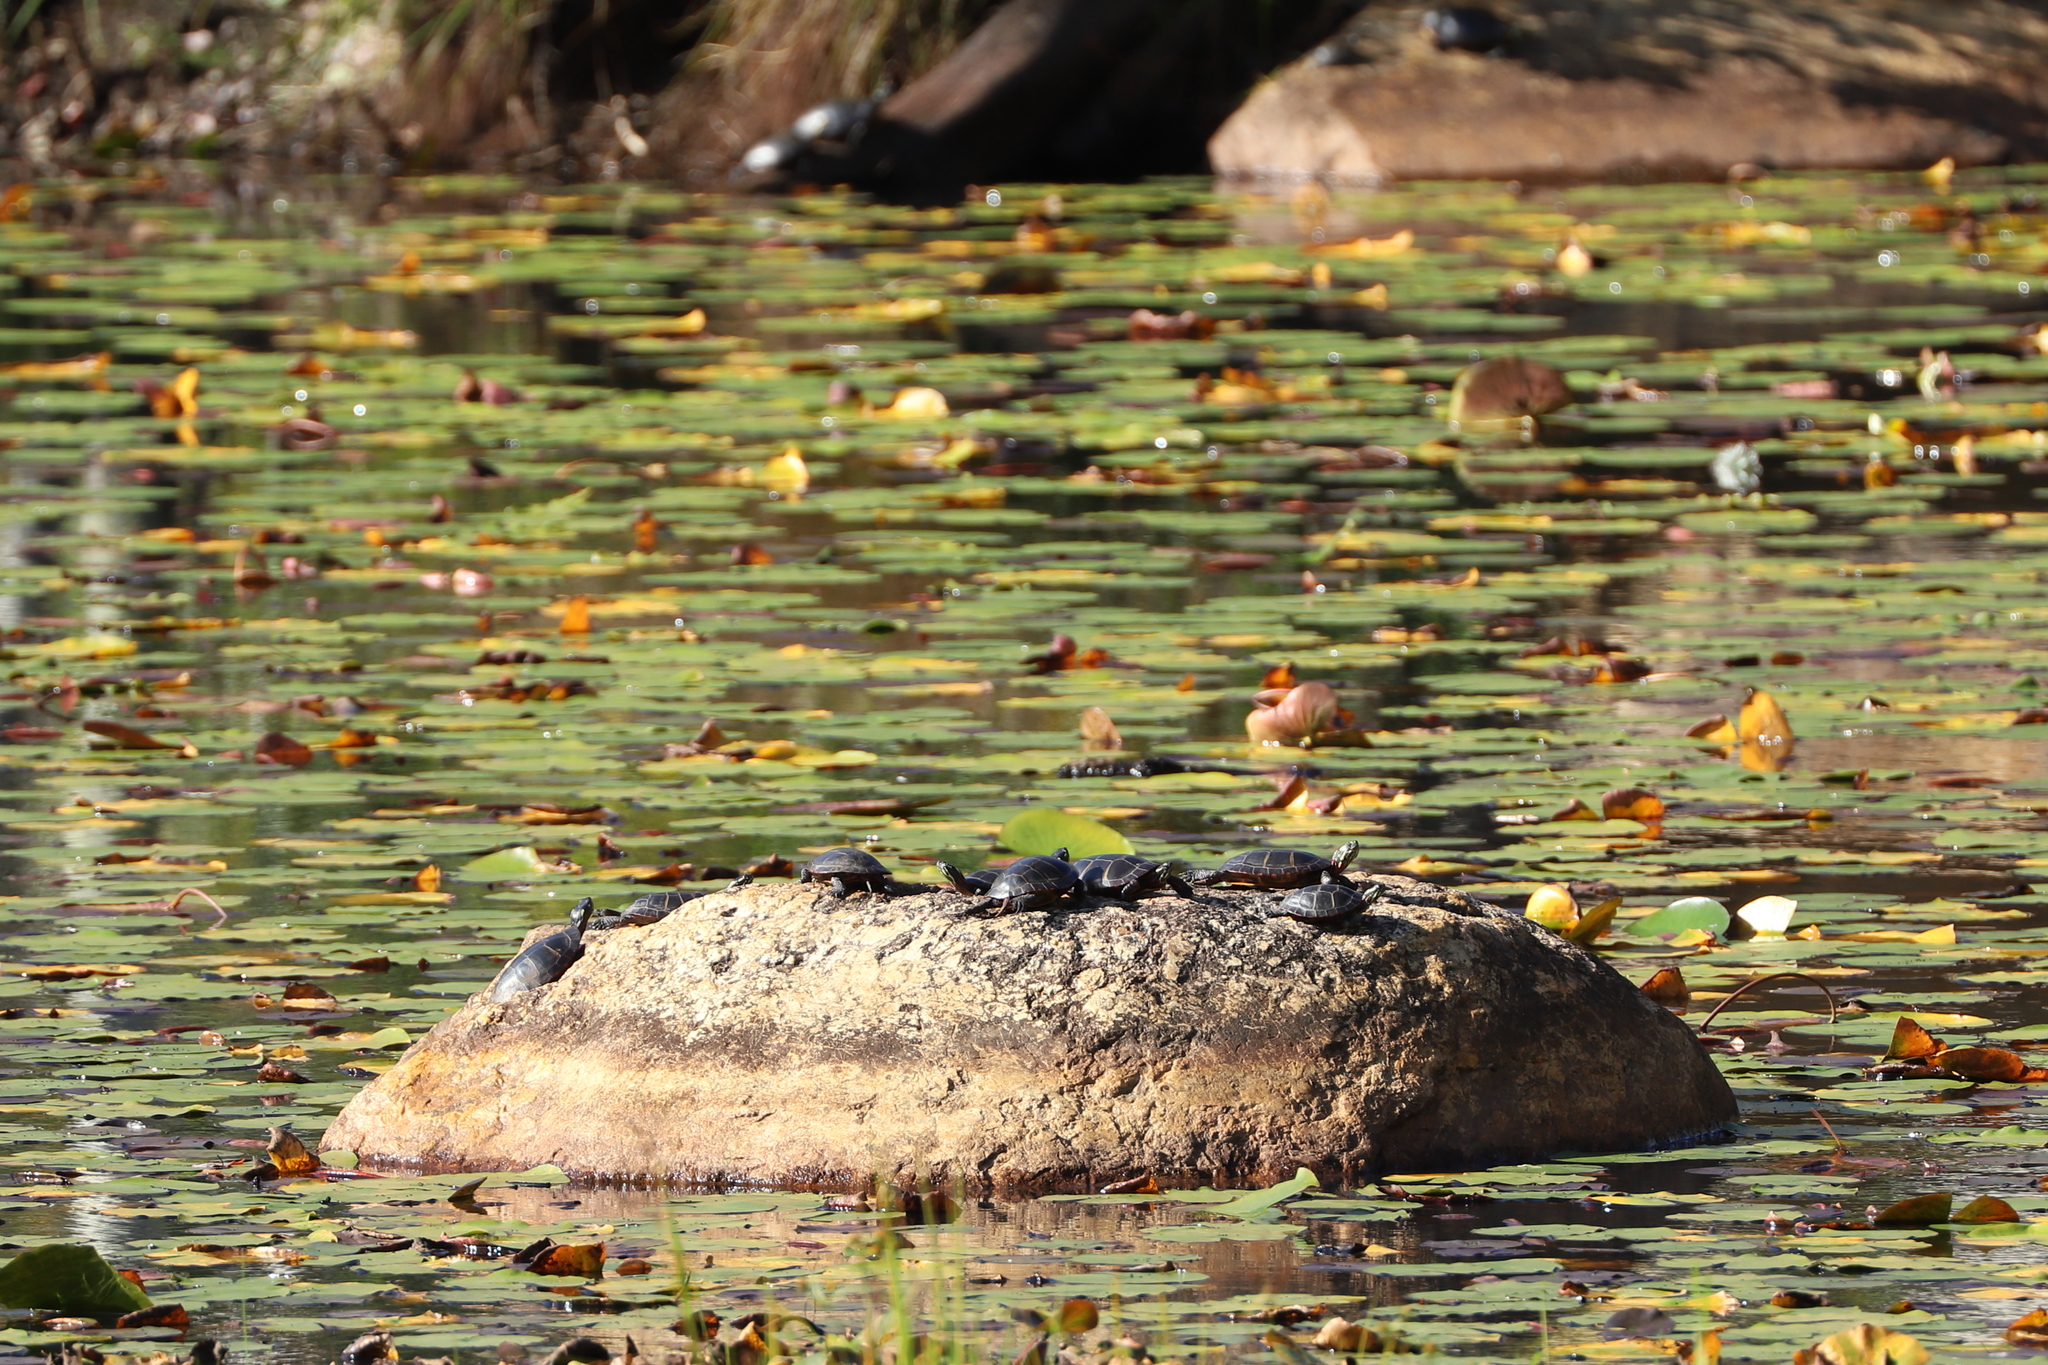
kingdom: Animalia
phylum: Chordata
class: Testudines
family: Emydidae
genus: Chrysemys
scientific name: Chrysemys picta
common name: Painted turtle
